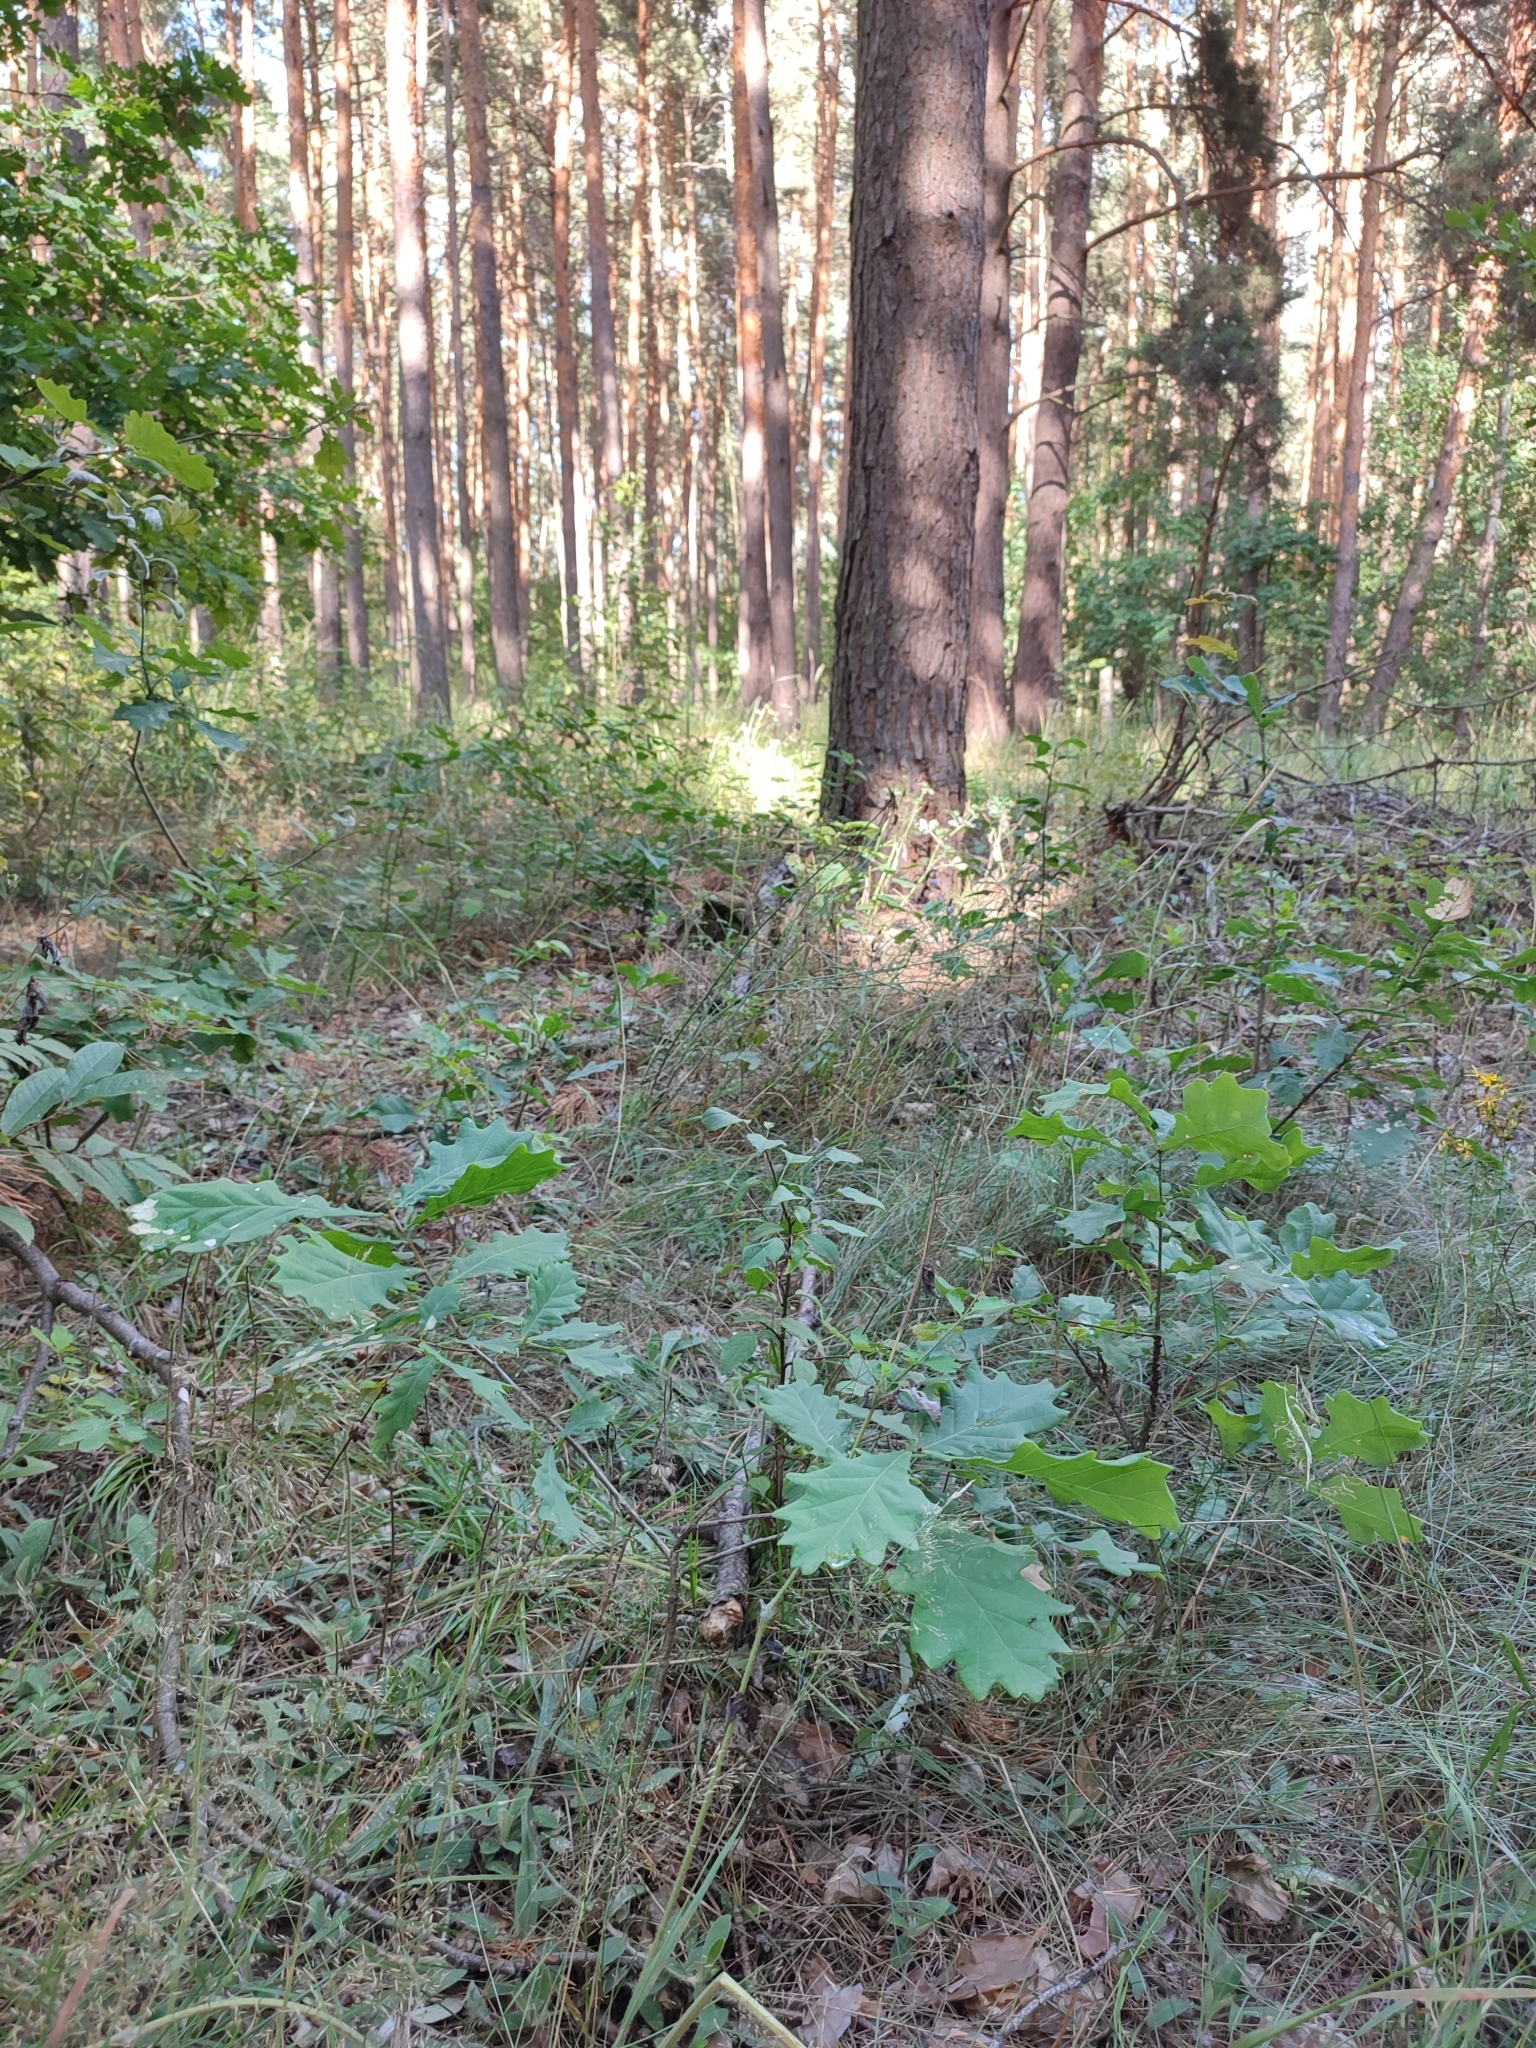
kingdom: Plantae
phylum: Tracheophyta
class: Magnoliopsida
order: Fagales
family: Fagaceae
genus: Quercus
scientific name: Quercus robur
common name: Pedunculate oak
